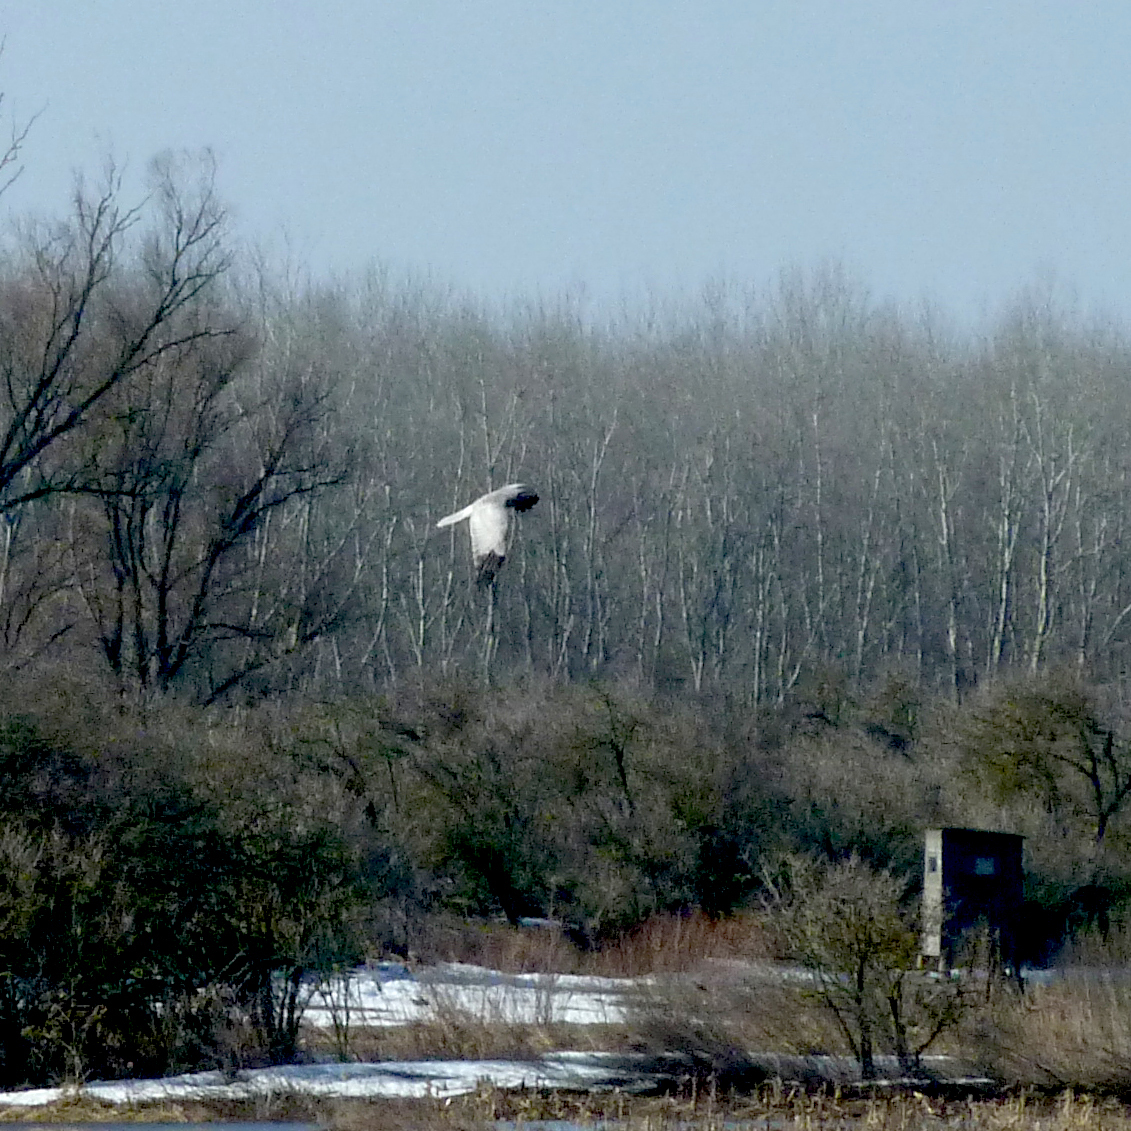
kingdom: Animalia
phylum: Chordata
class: Aves
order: Accipitriformes
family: Accipitridae
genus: Circus
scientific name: Circus cyaneus
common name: Hen harrier
